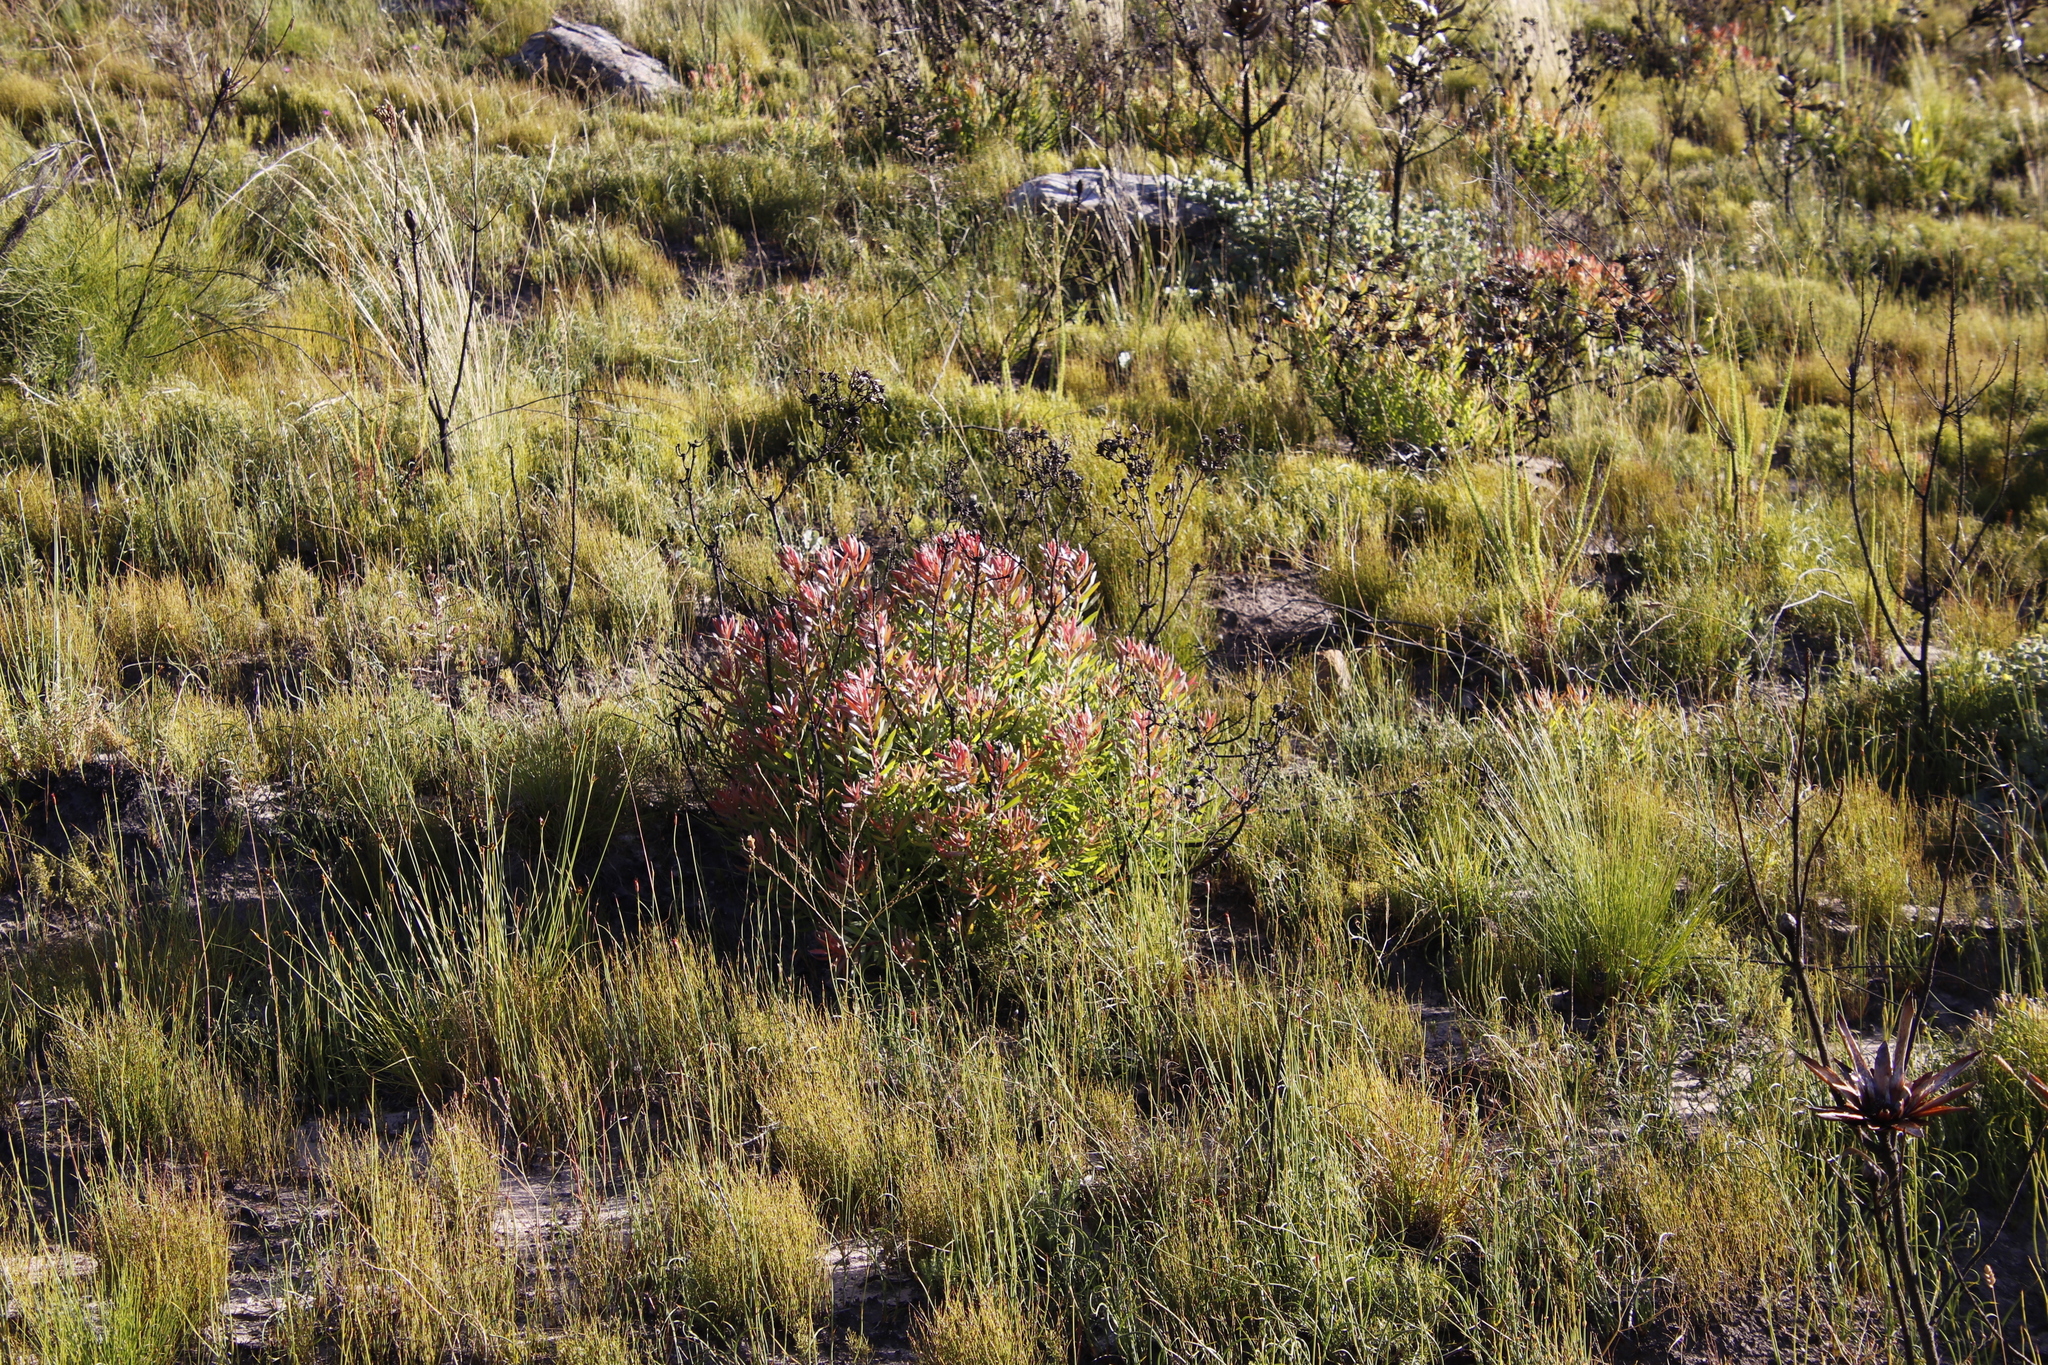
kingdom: Plantae
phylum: Tracheophyta
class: Magnoliopsida
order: Proteales
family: Proteaceae
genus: Leucadendron
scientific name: Leucadendron salignum
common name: Common sunshine conebush
